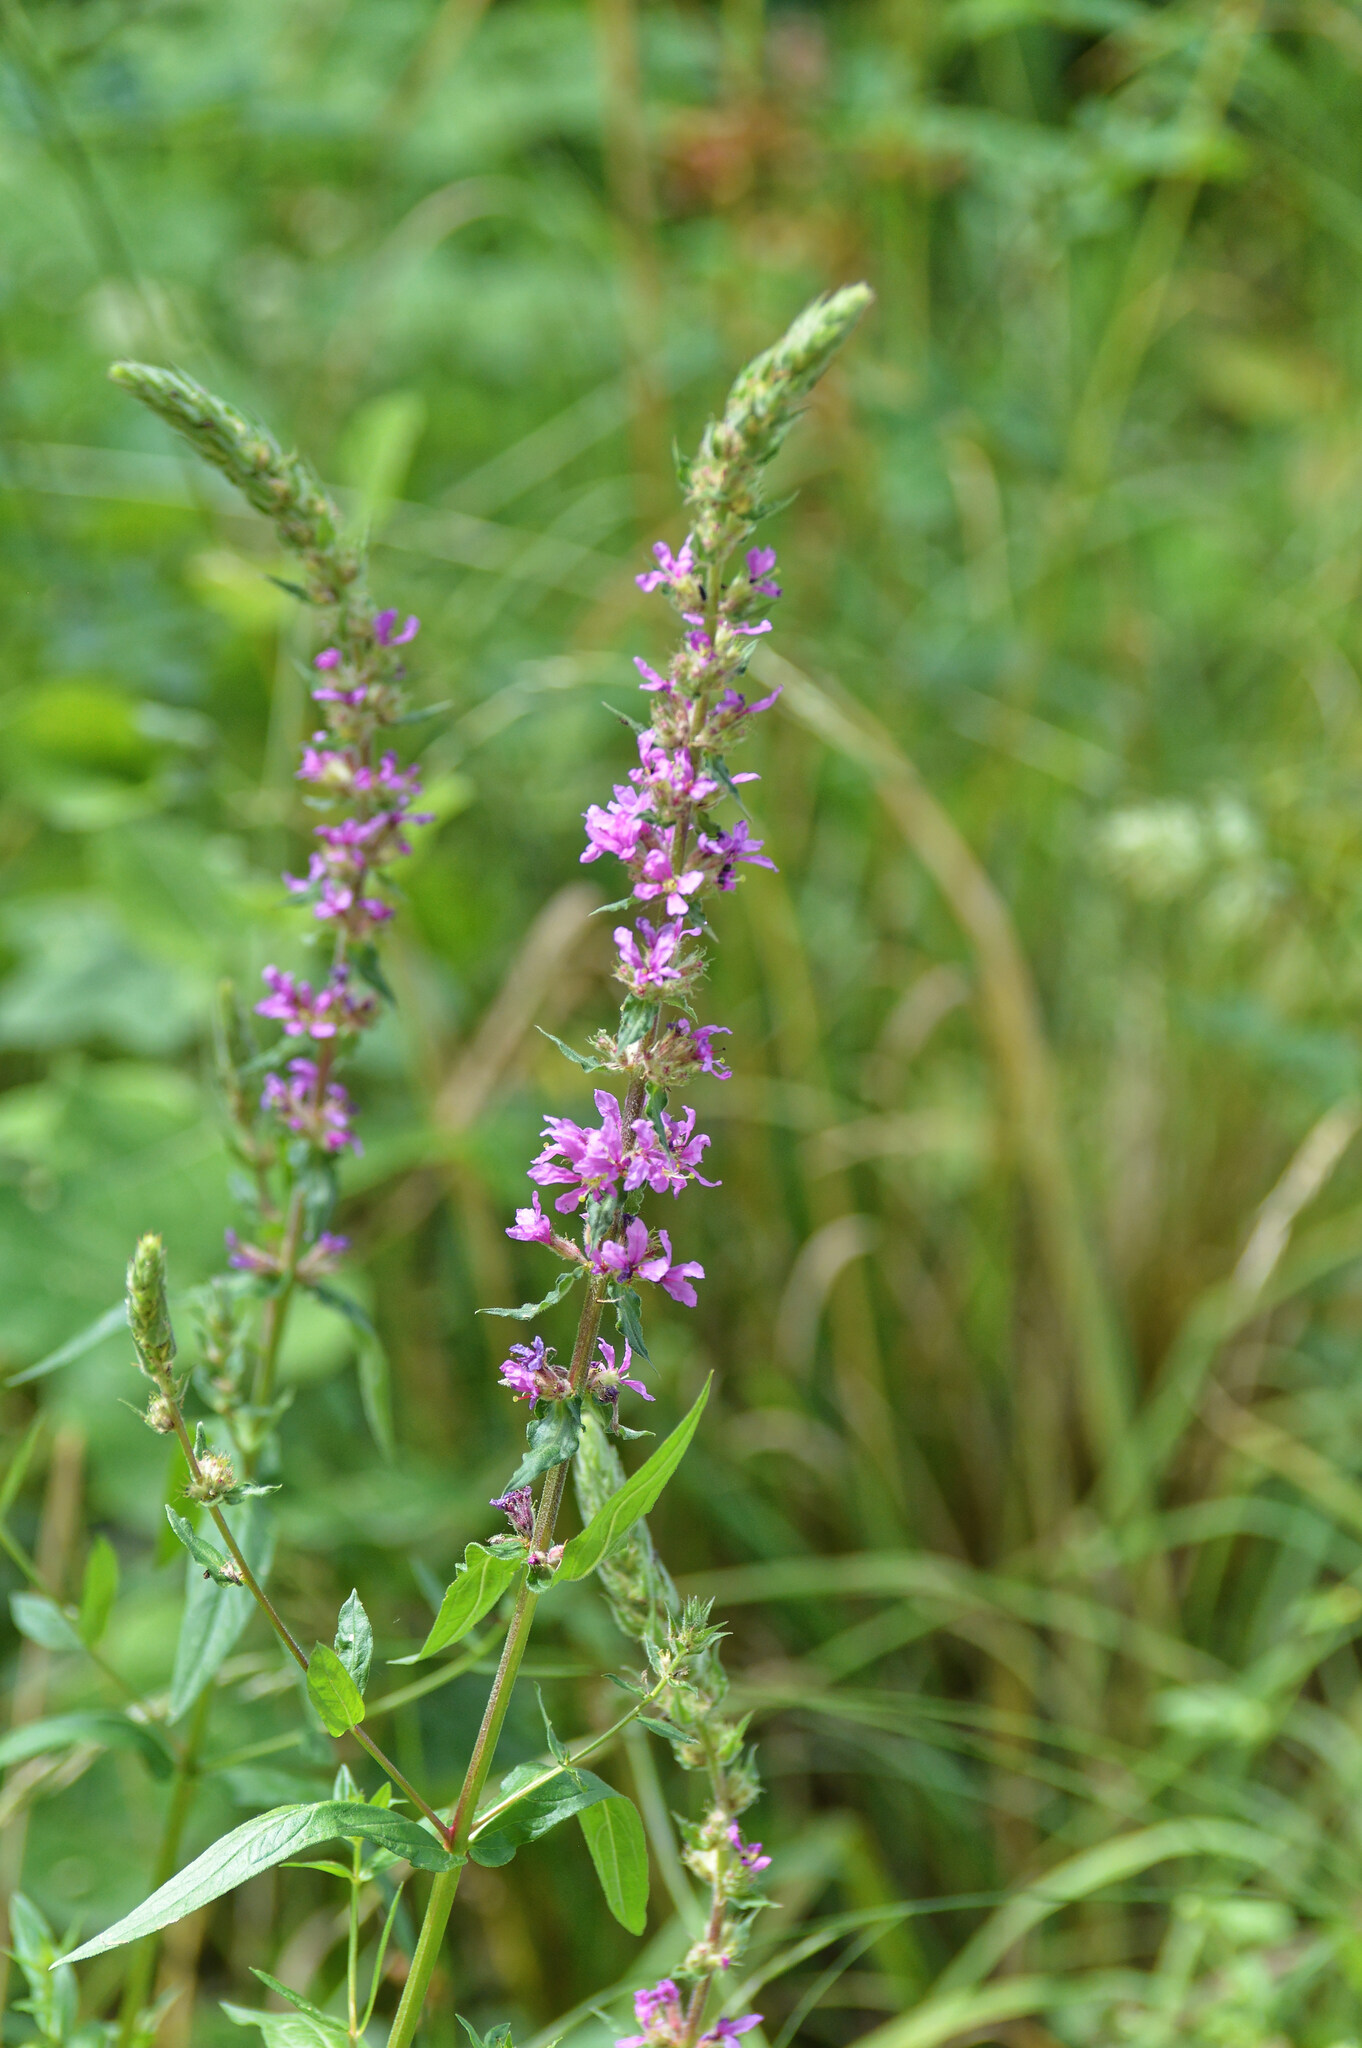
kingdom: Plantae
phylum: Tracheophyta
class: Magnoliopsida
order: Myrtales
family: Lythraceae
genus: Lythrum
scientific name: Lythrum salicaria
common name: Purple loosestrife
